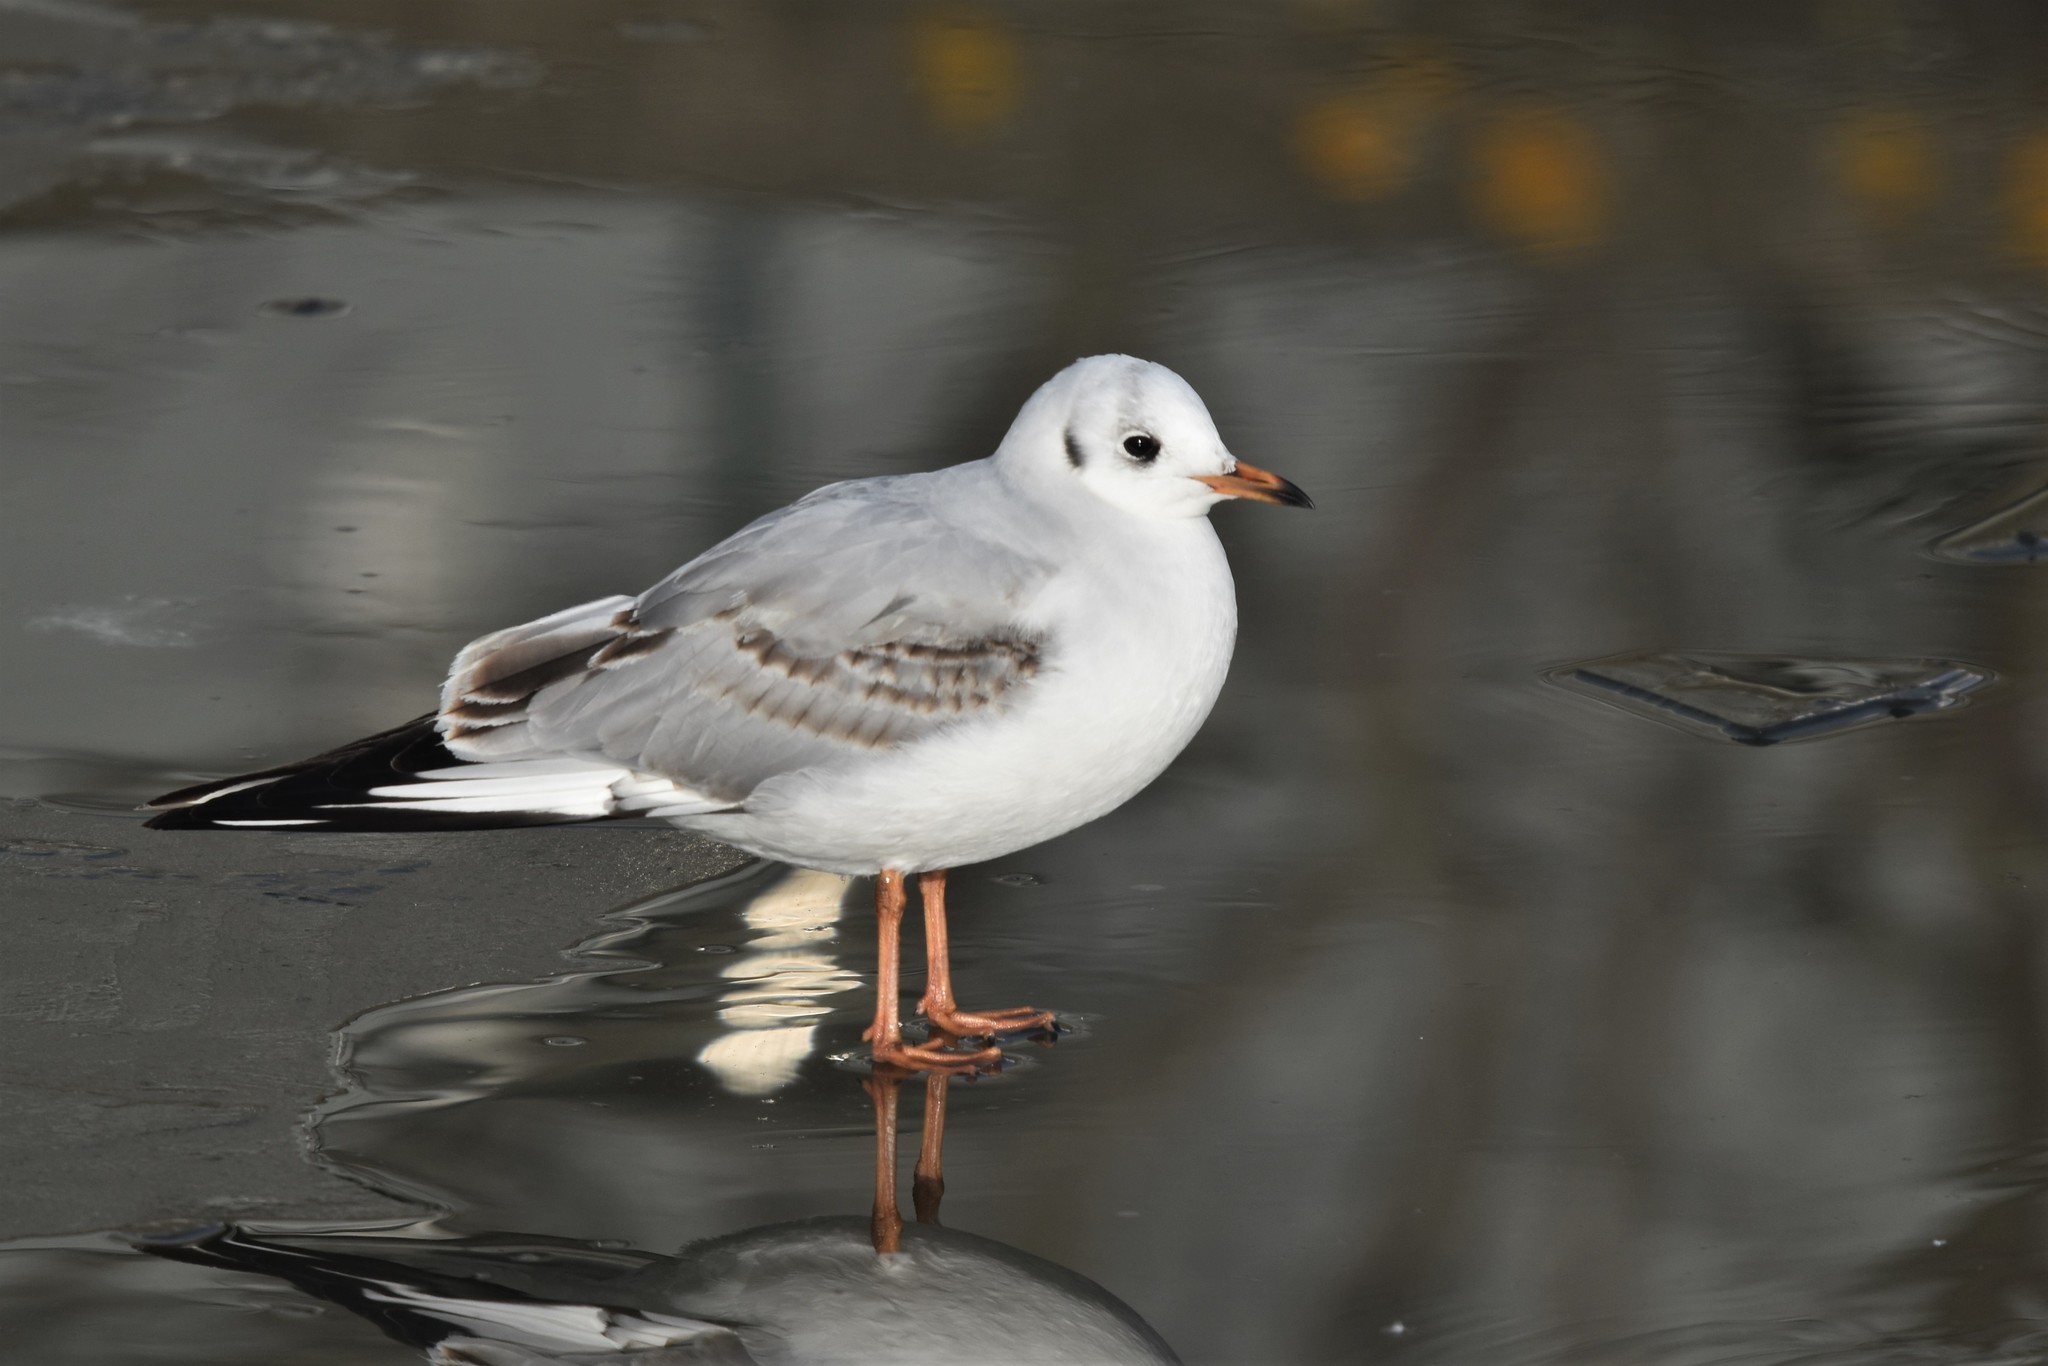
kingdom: Animalia
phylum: Chordata
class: Aves
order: Charadriiformes
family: Laridae
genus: Chroicocephalus
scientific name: Chroicocephalus ridibundus
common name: Black-headed gull
